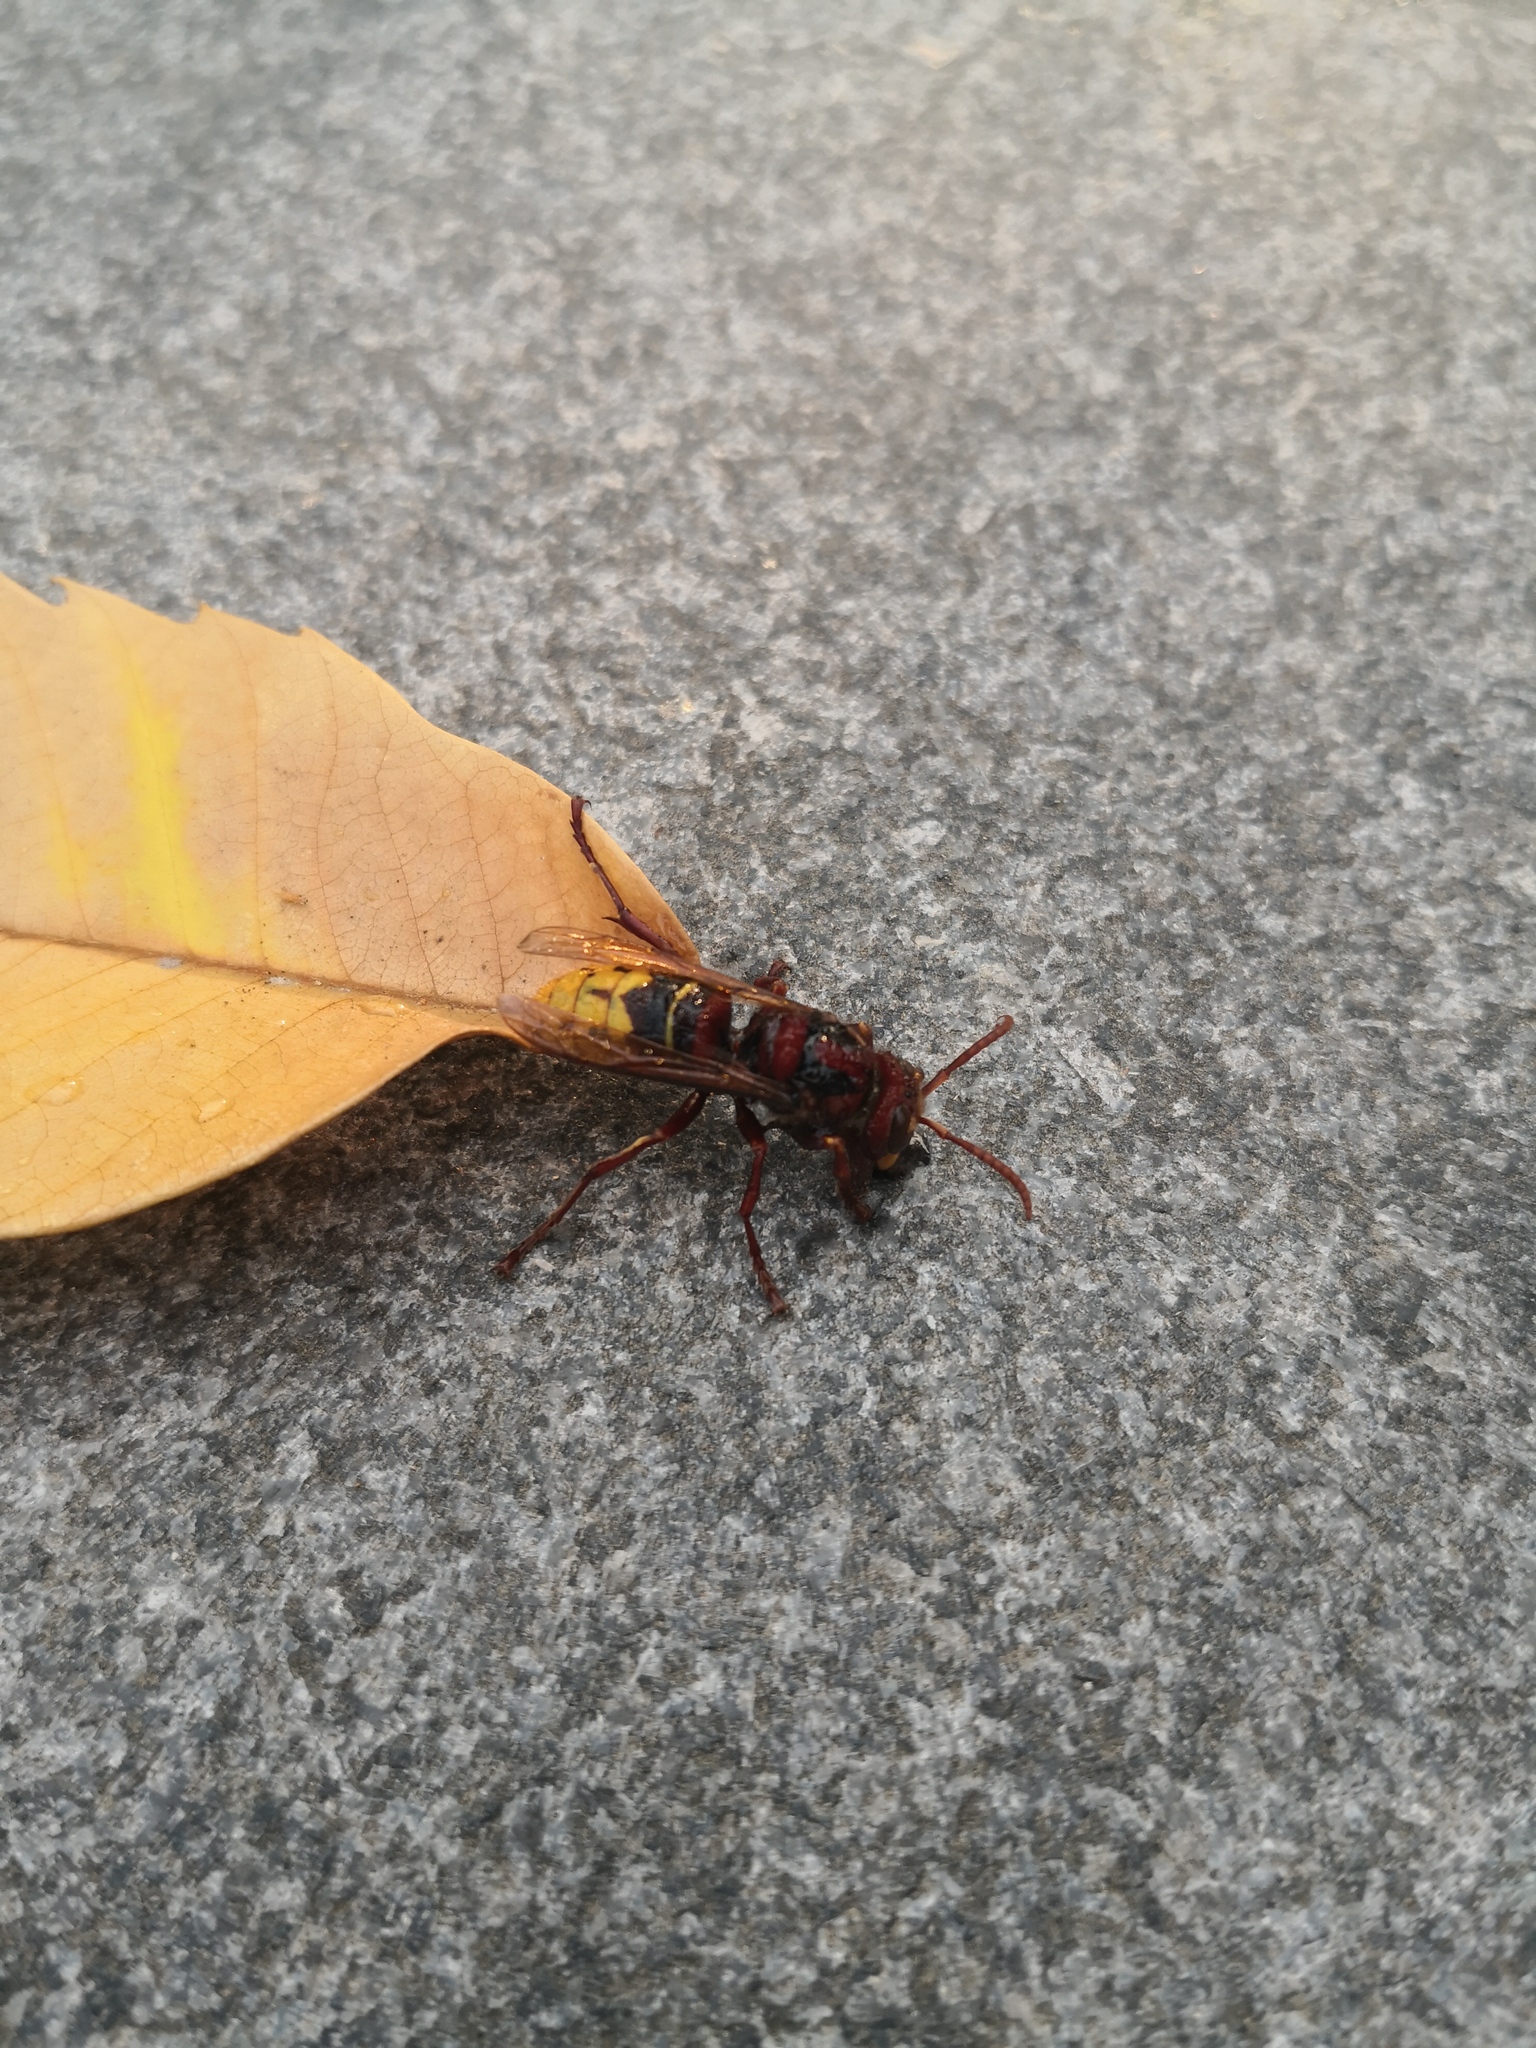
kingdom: Animalia
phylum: Arthropoda
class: Insecta
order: Hymenoptera
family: Vespidae
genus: Vespa
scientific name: Vespa velutina
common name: Asian hornet
